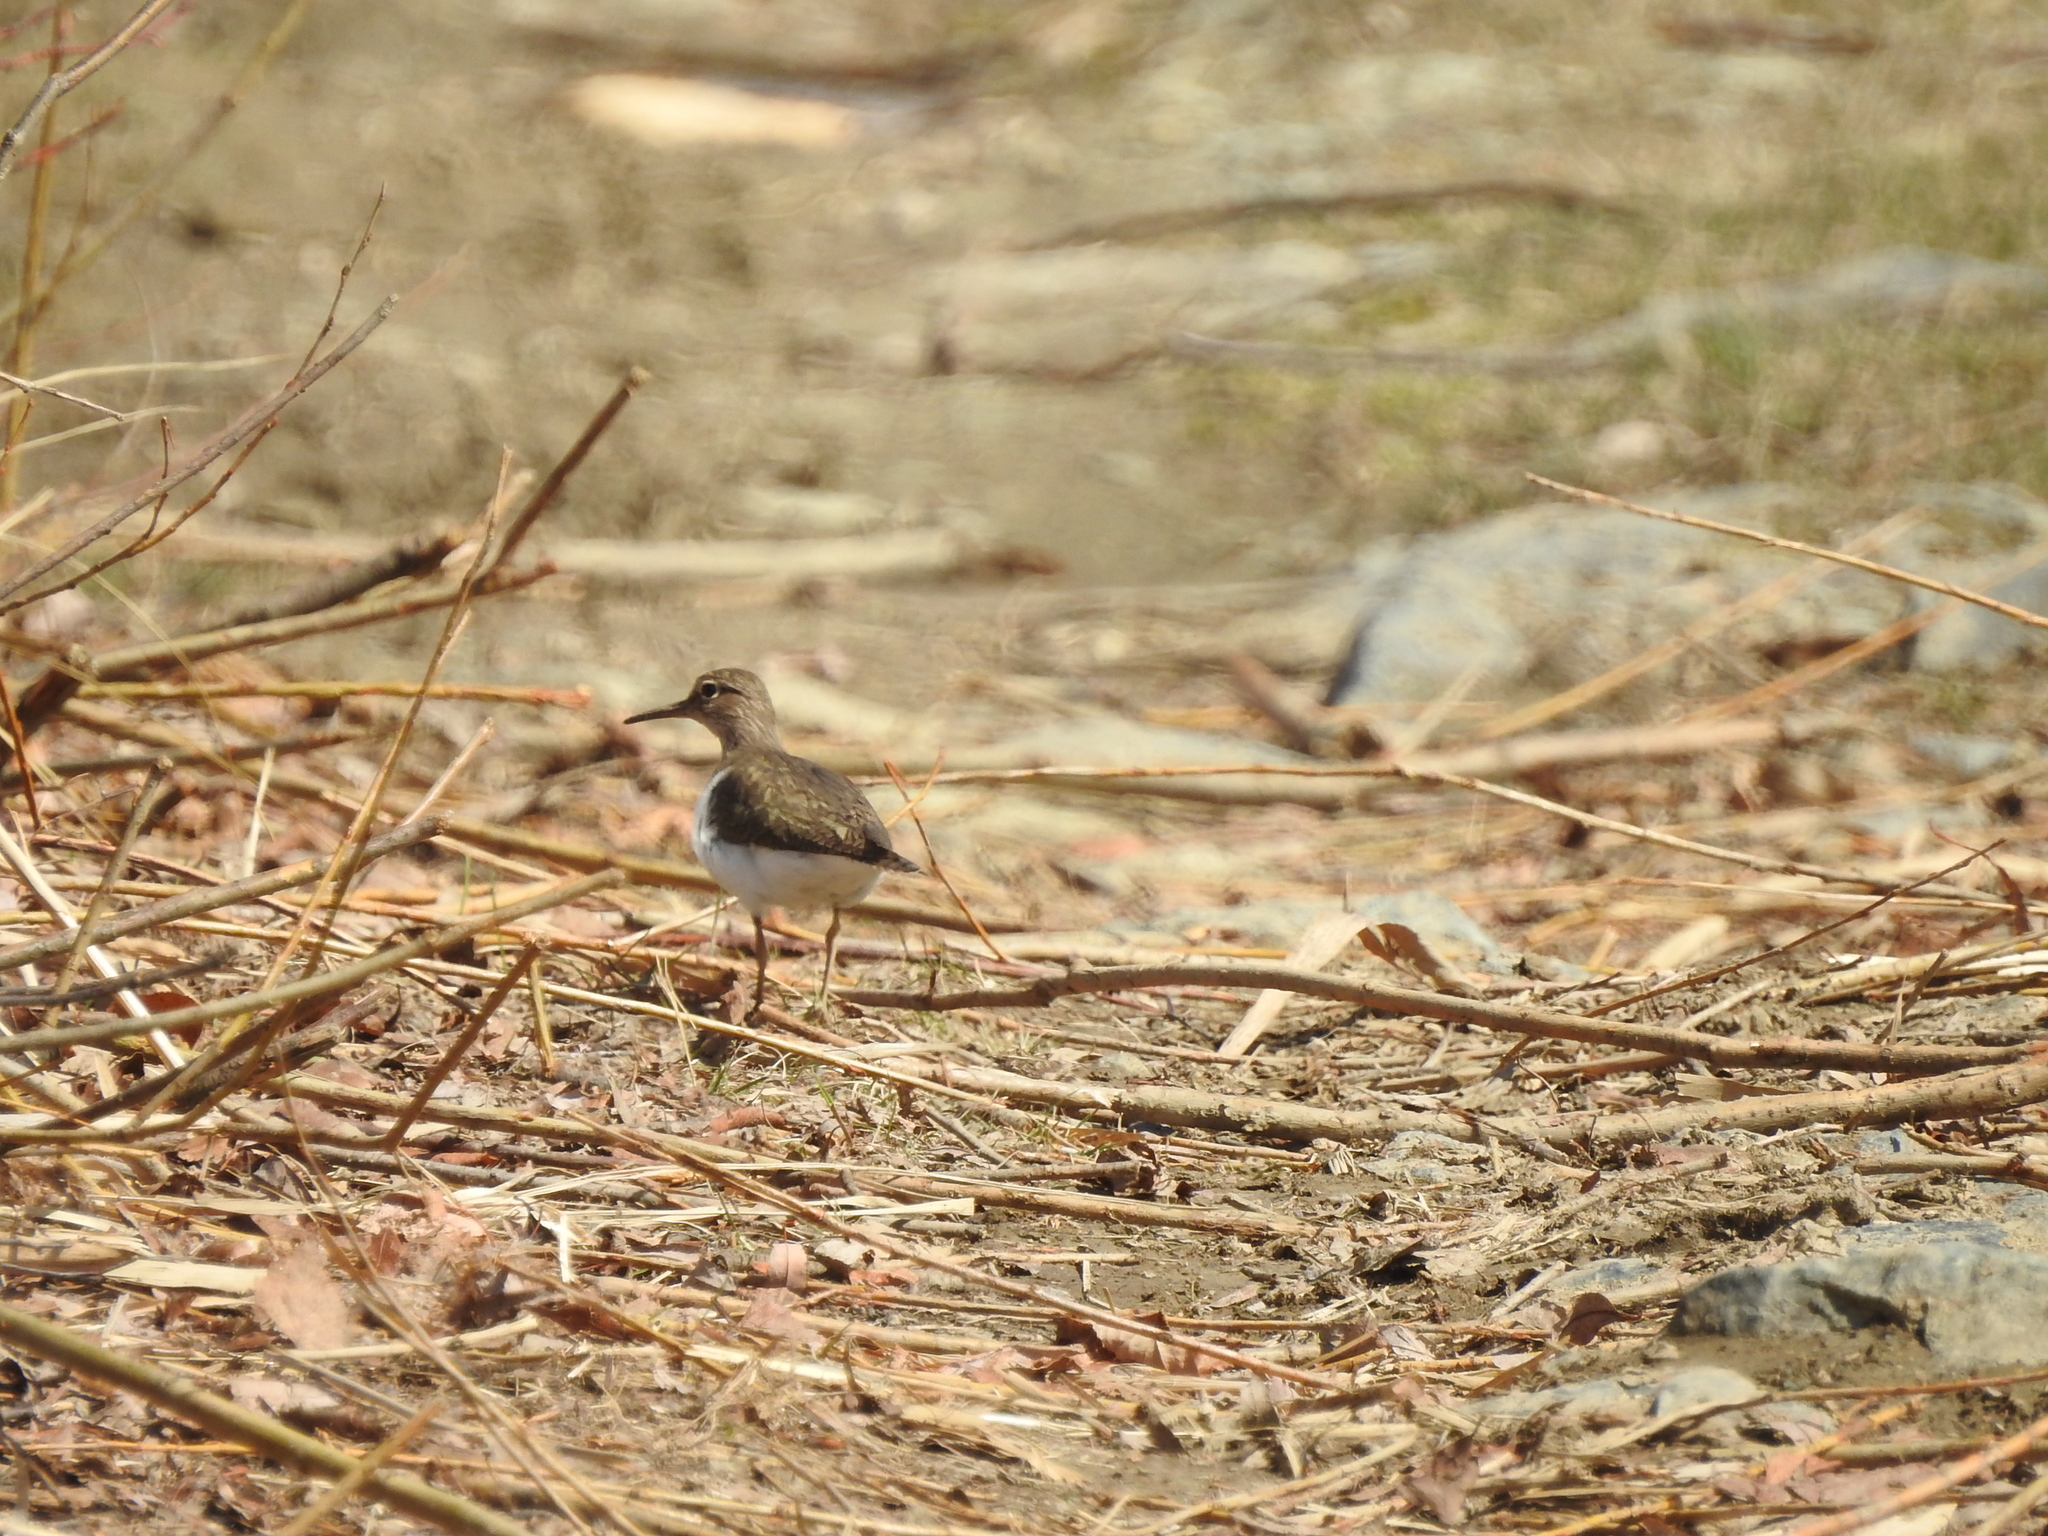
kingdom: Animalia
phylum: Chordata
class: Aves
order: Charadriiformes
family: Scolopacidae
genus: Actitis
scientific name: Actitis hypoleucos
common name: Common sandpiper
